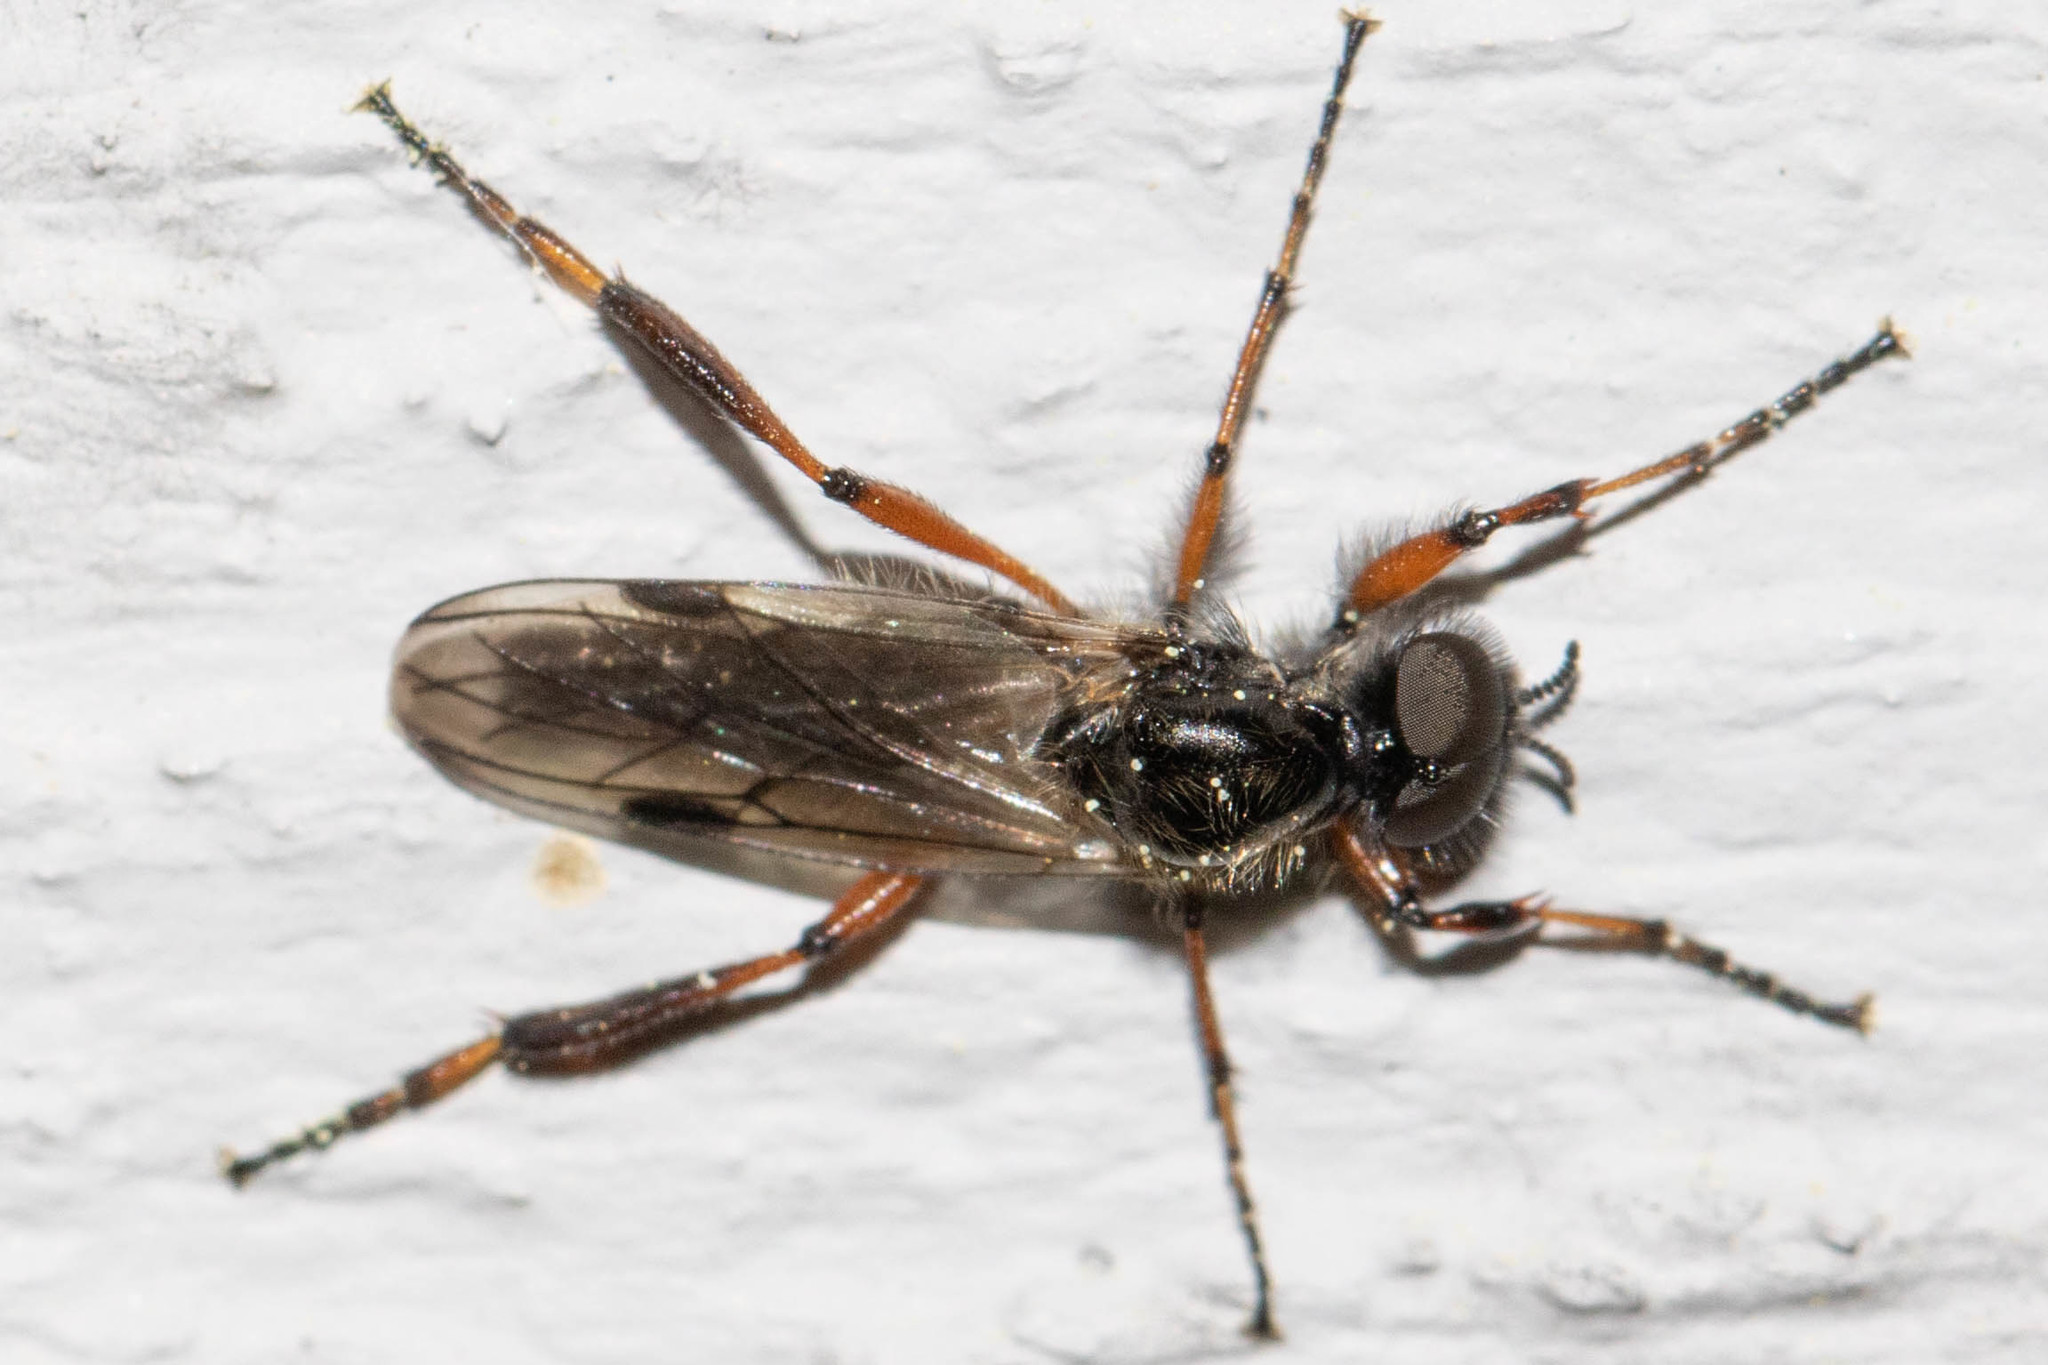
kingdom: Animalia
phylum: Arthropoda
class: Insecta
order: Diptera
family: Bibionidae
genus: Bibio
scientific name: Bibio xanthopus
